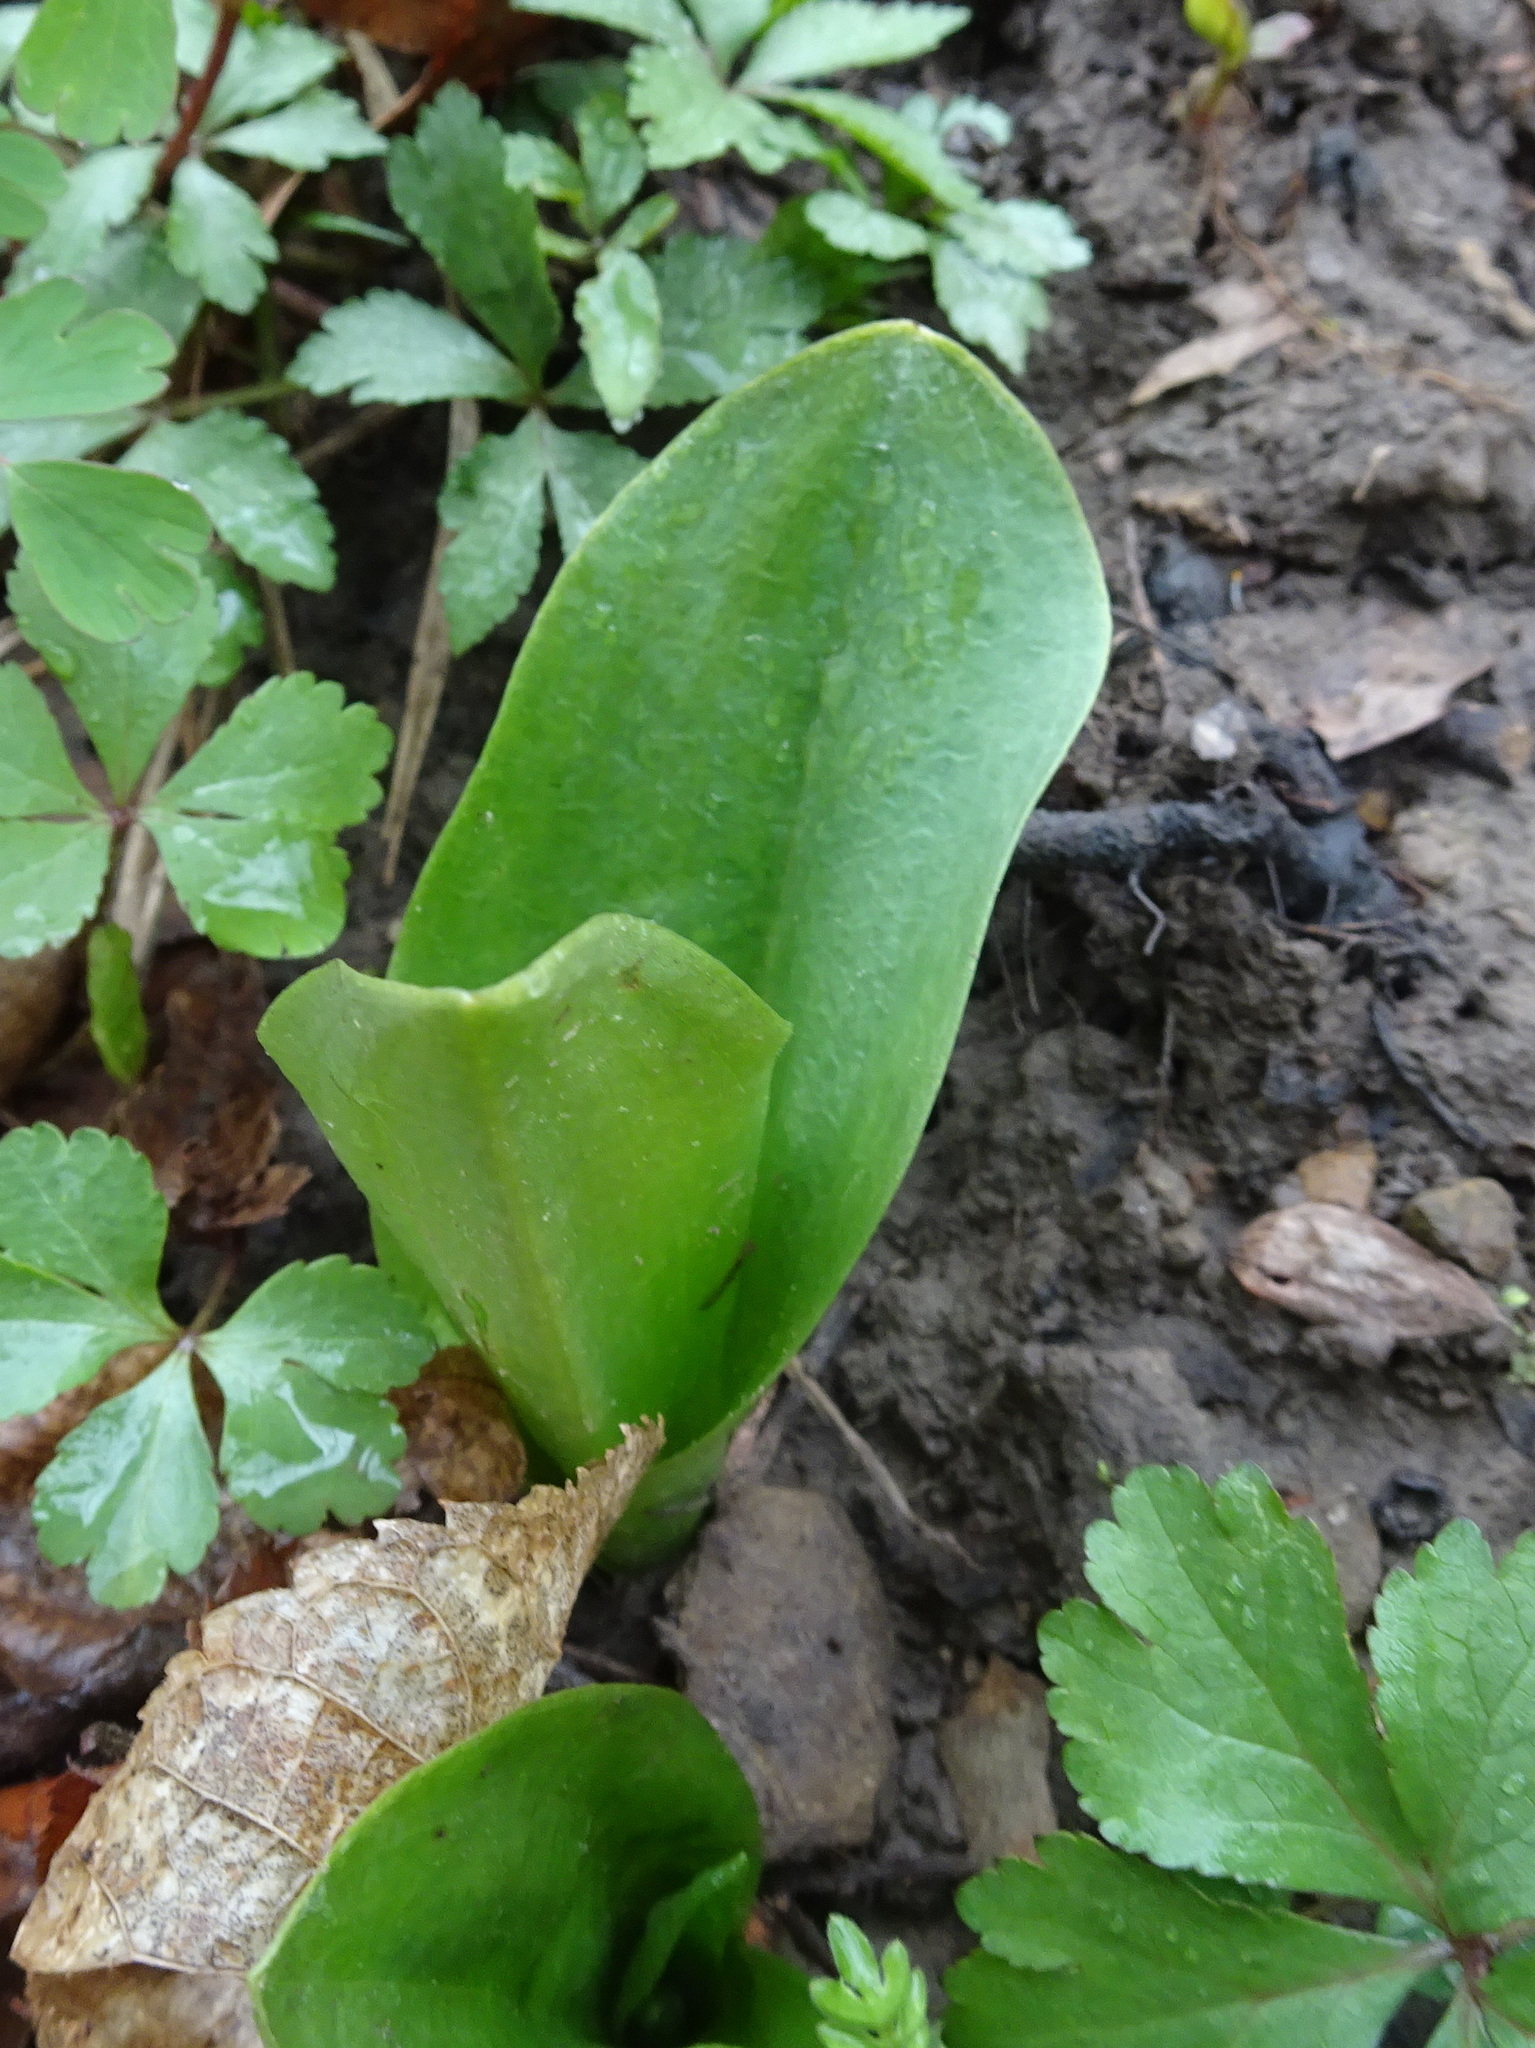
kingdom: Plantae
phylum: Tracheophyta
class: Liliopsida
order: Asparagales
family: Orchidaceae
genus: Galearis
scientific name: Galearis spectabilis
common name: Purple-hooded orchis
